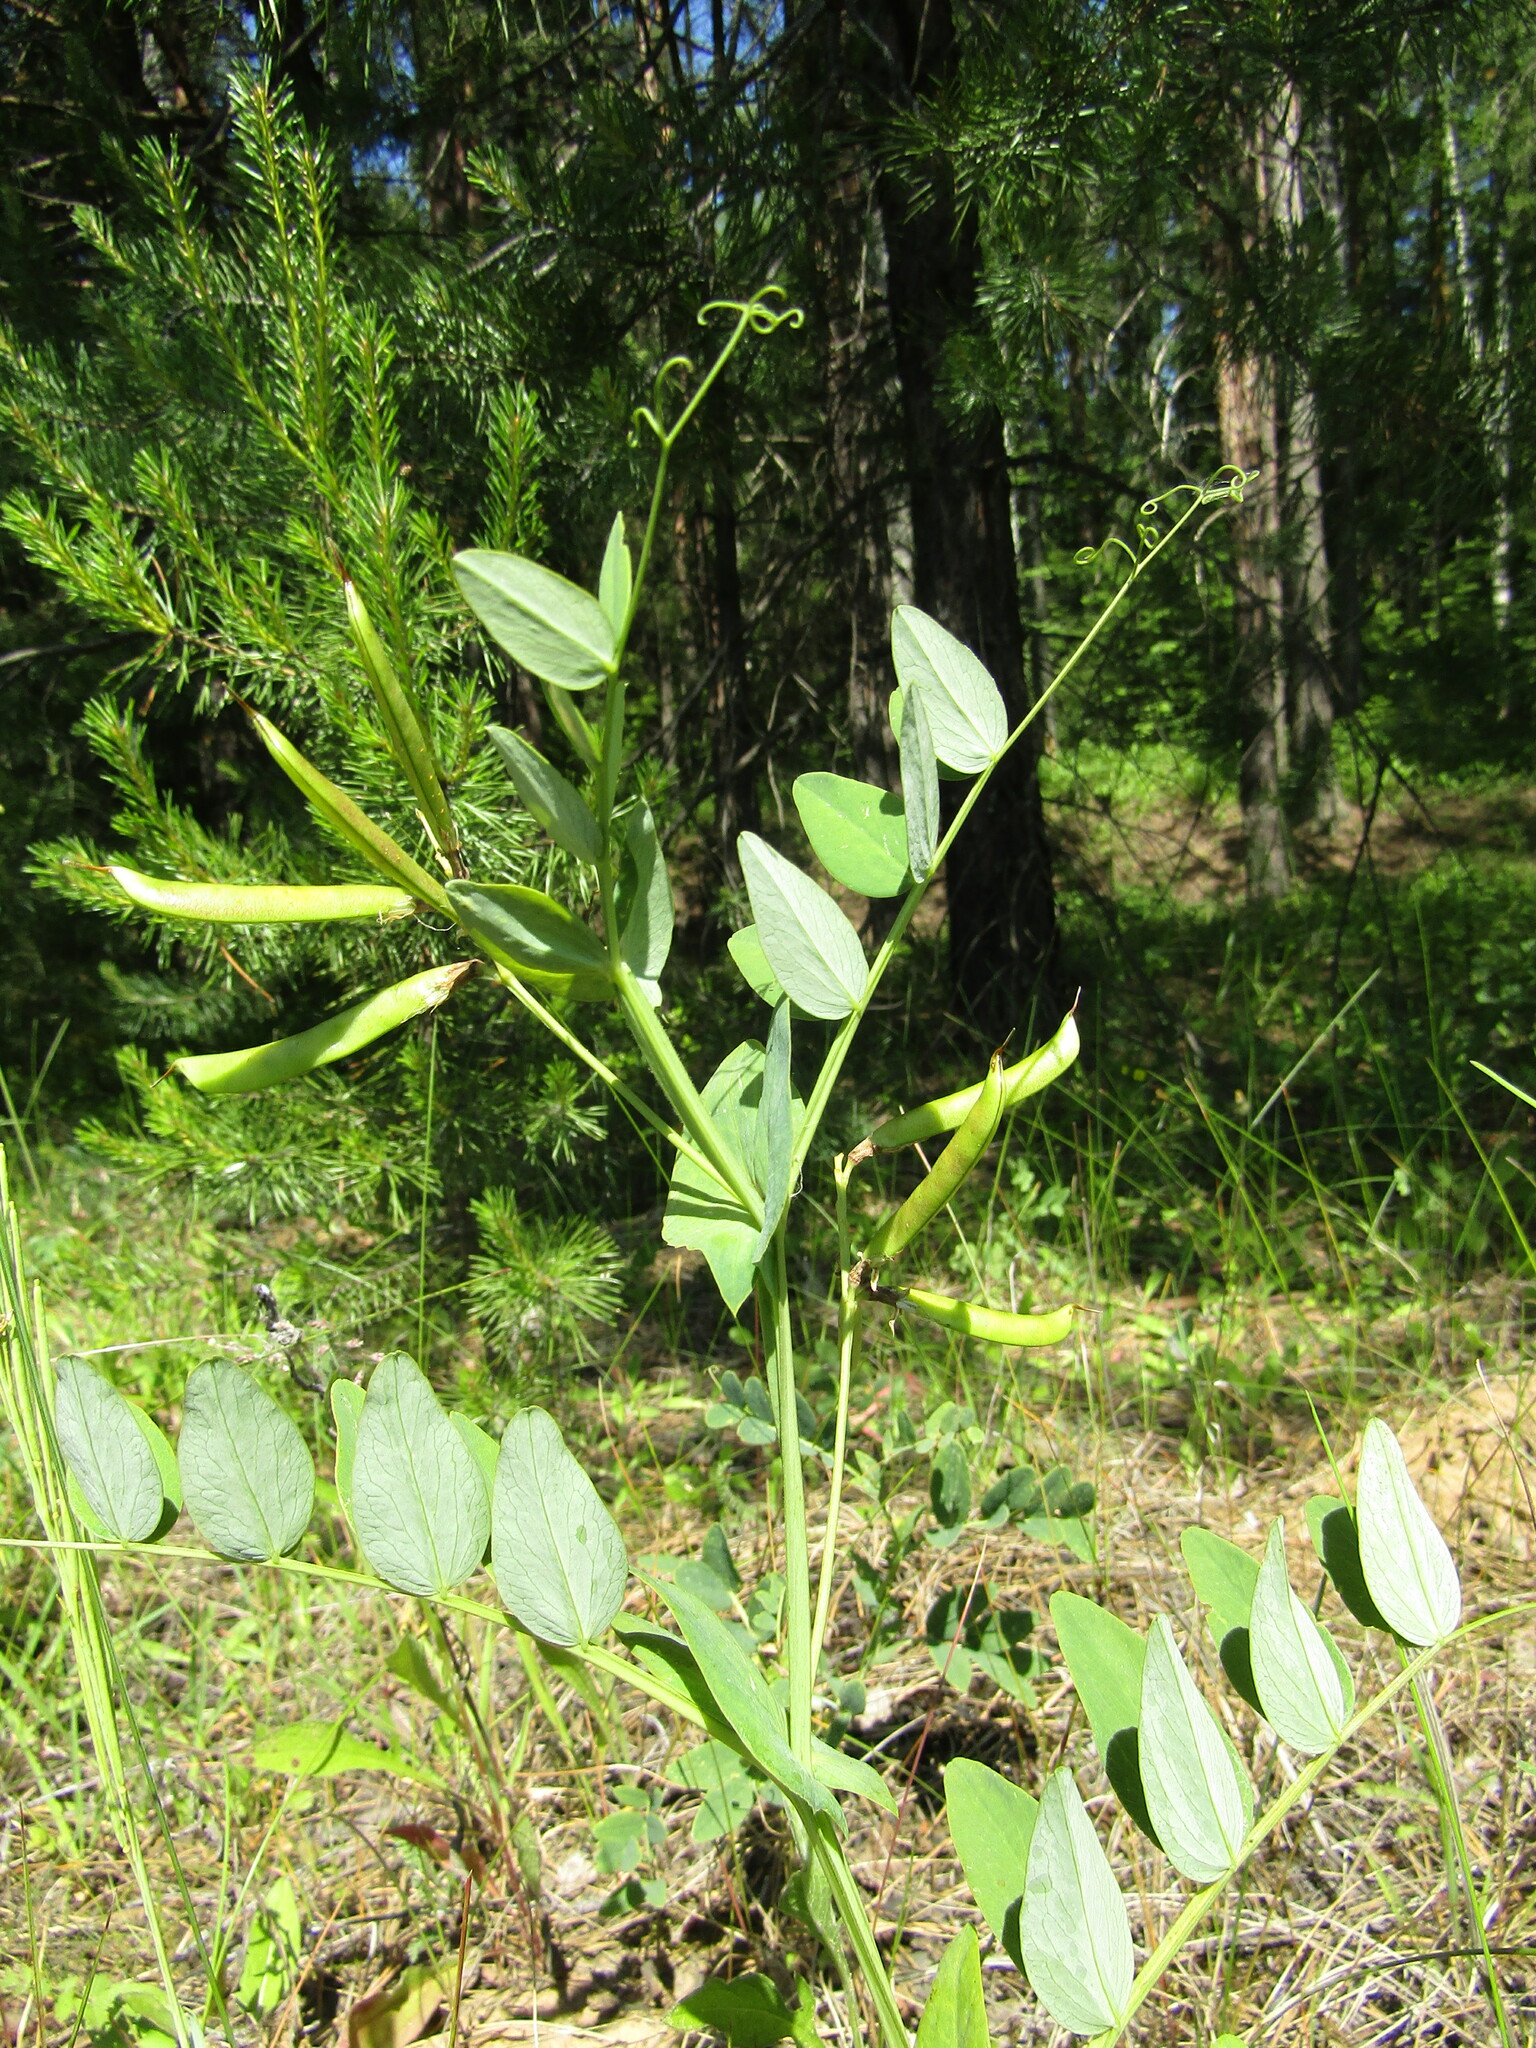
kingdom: Plantae
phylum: Tracheophyta
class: Magnoliopsida
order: Fabales
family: Fabaceae
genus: Lathyrus
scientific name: Lathyrus pisiformis
